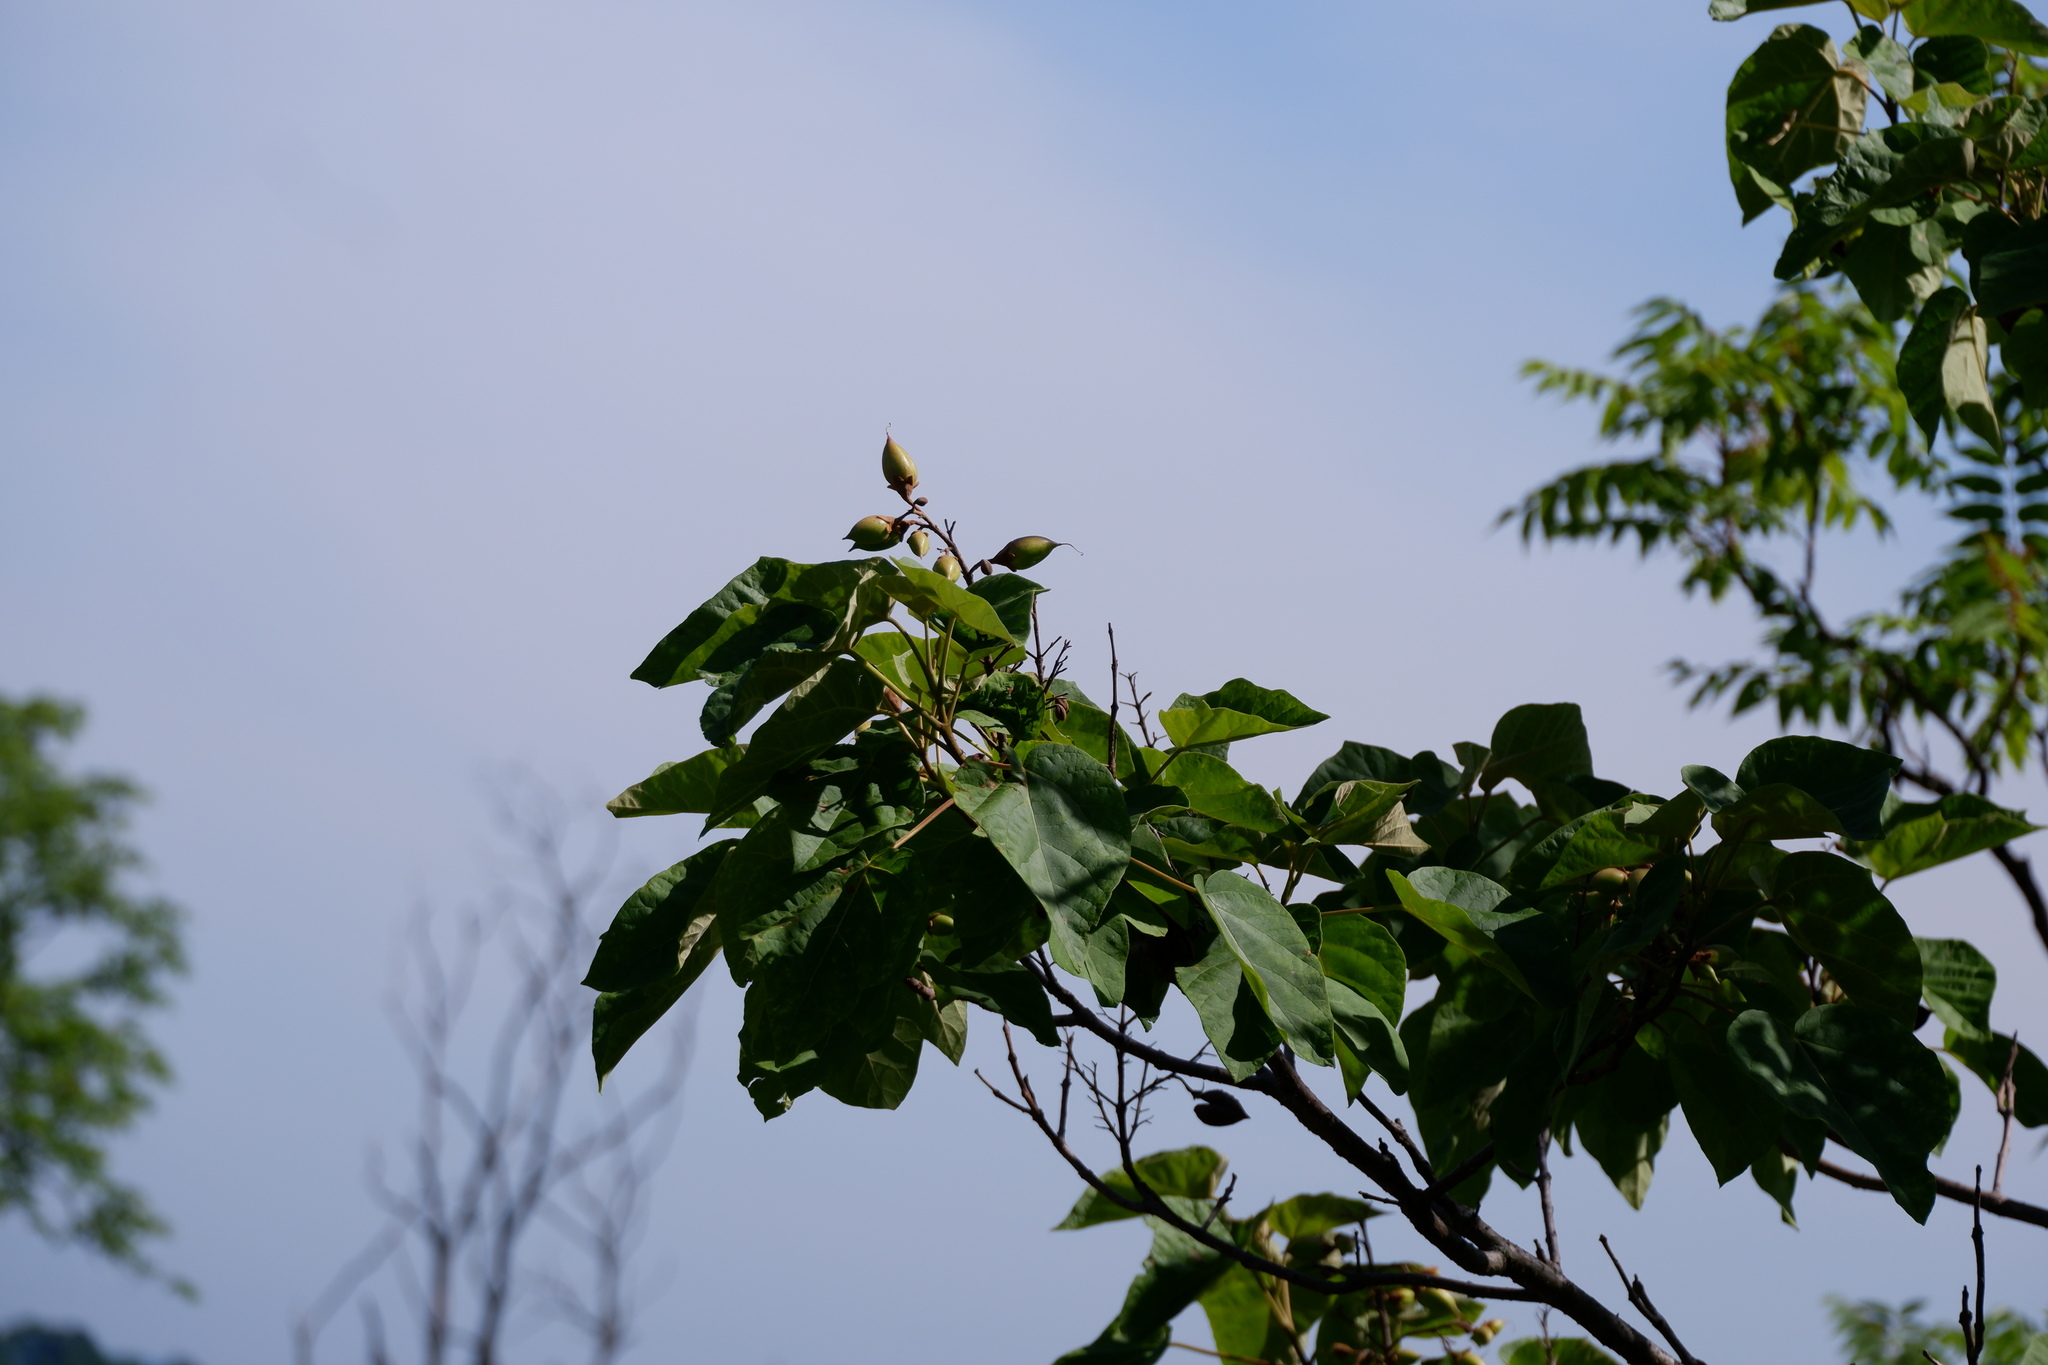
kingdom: Plantae
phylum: Tracheophyta
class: Magnoliopsida
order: Lamiales
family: Paulowniaceae
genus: Paulownia
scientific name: Paulownia tomentosa
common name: Foxglove-tree
